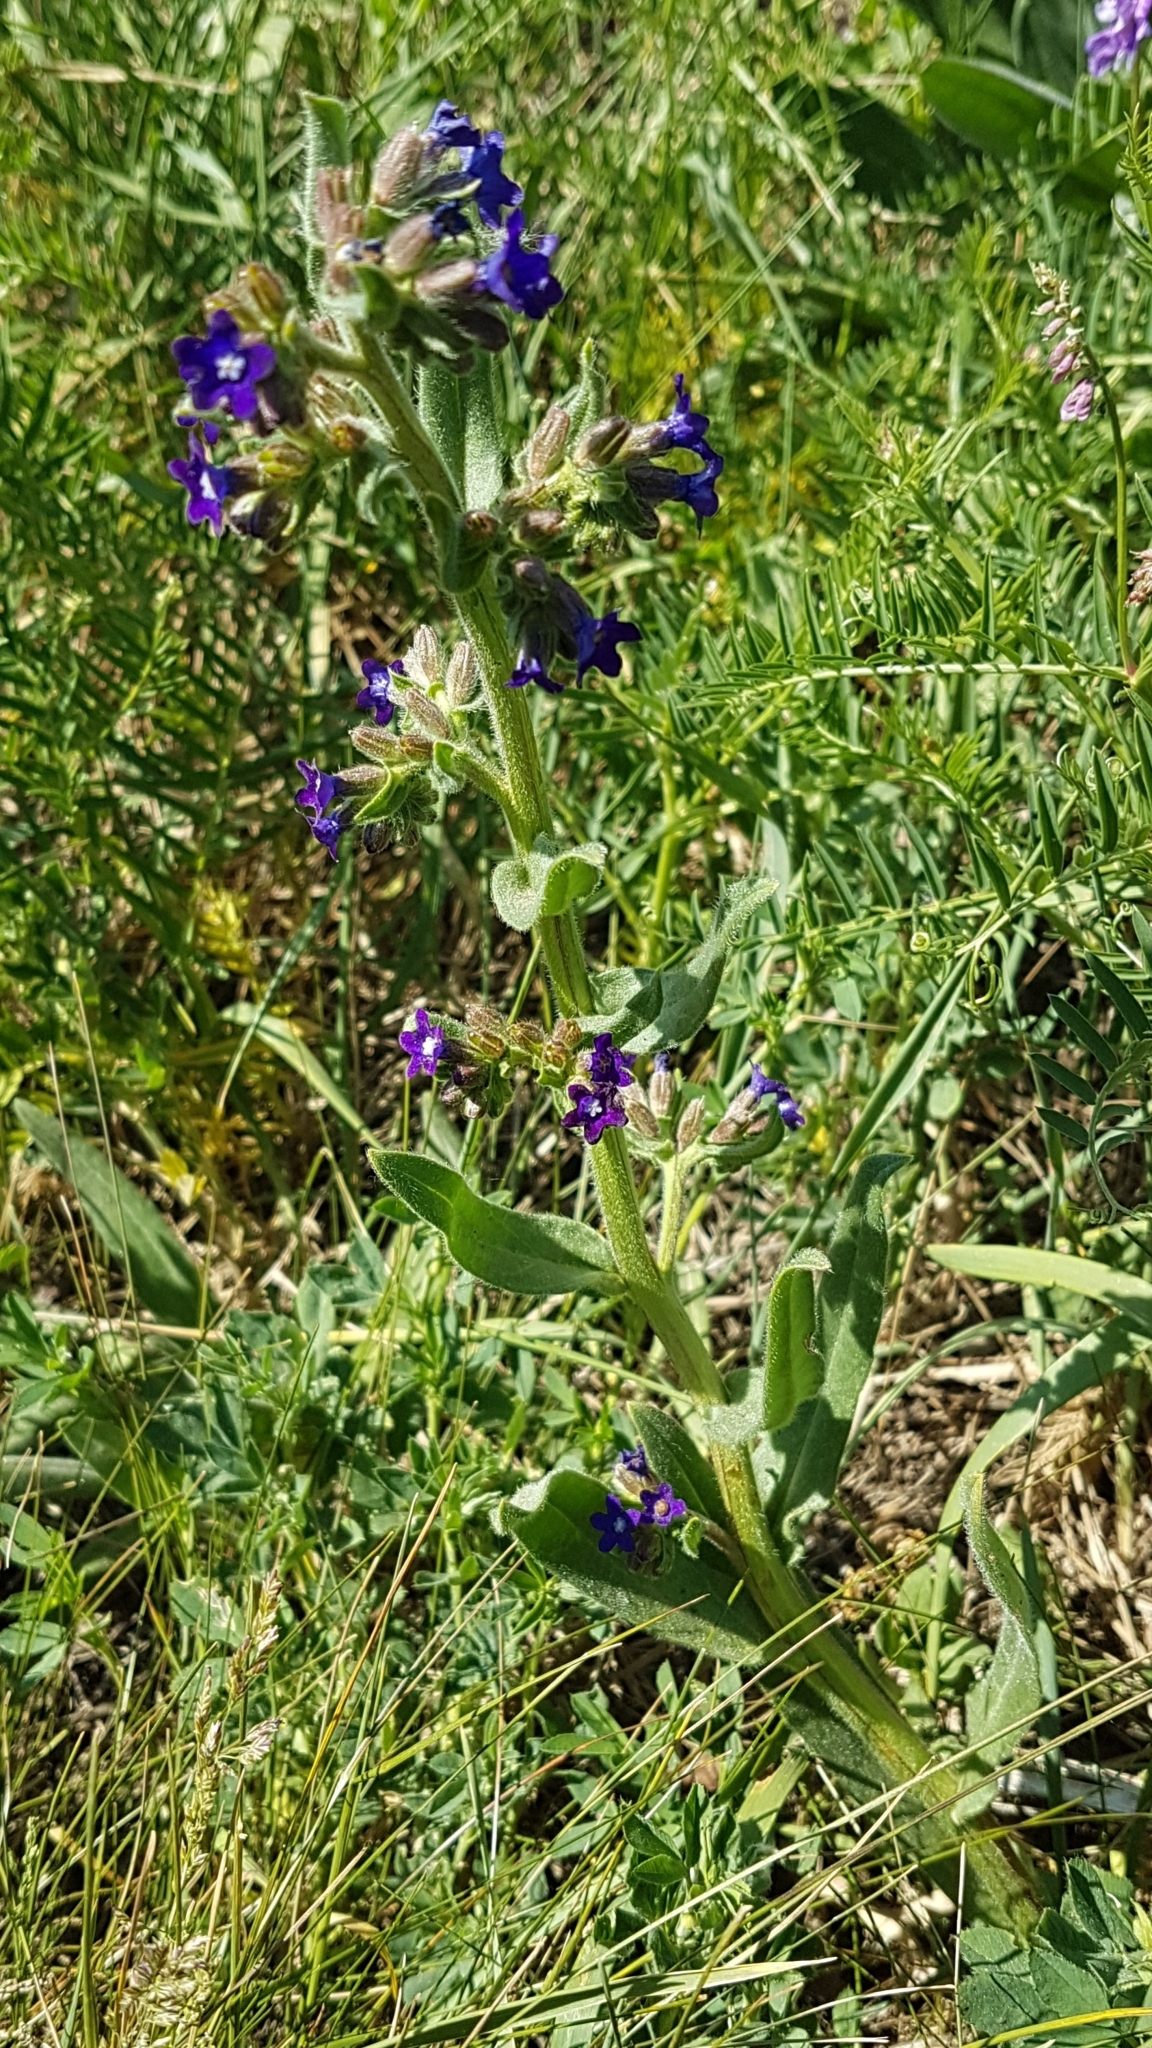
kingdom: Plantae
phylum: Tracheophyta
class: Magnoliopsida
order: Boraginales
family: Boraginaceae
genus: Anchusa
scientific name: Anchusa officinalis
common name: Alkanet
